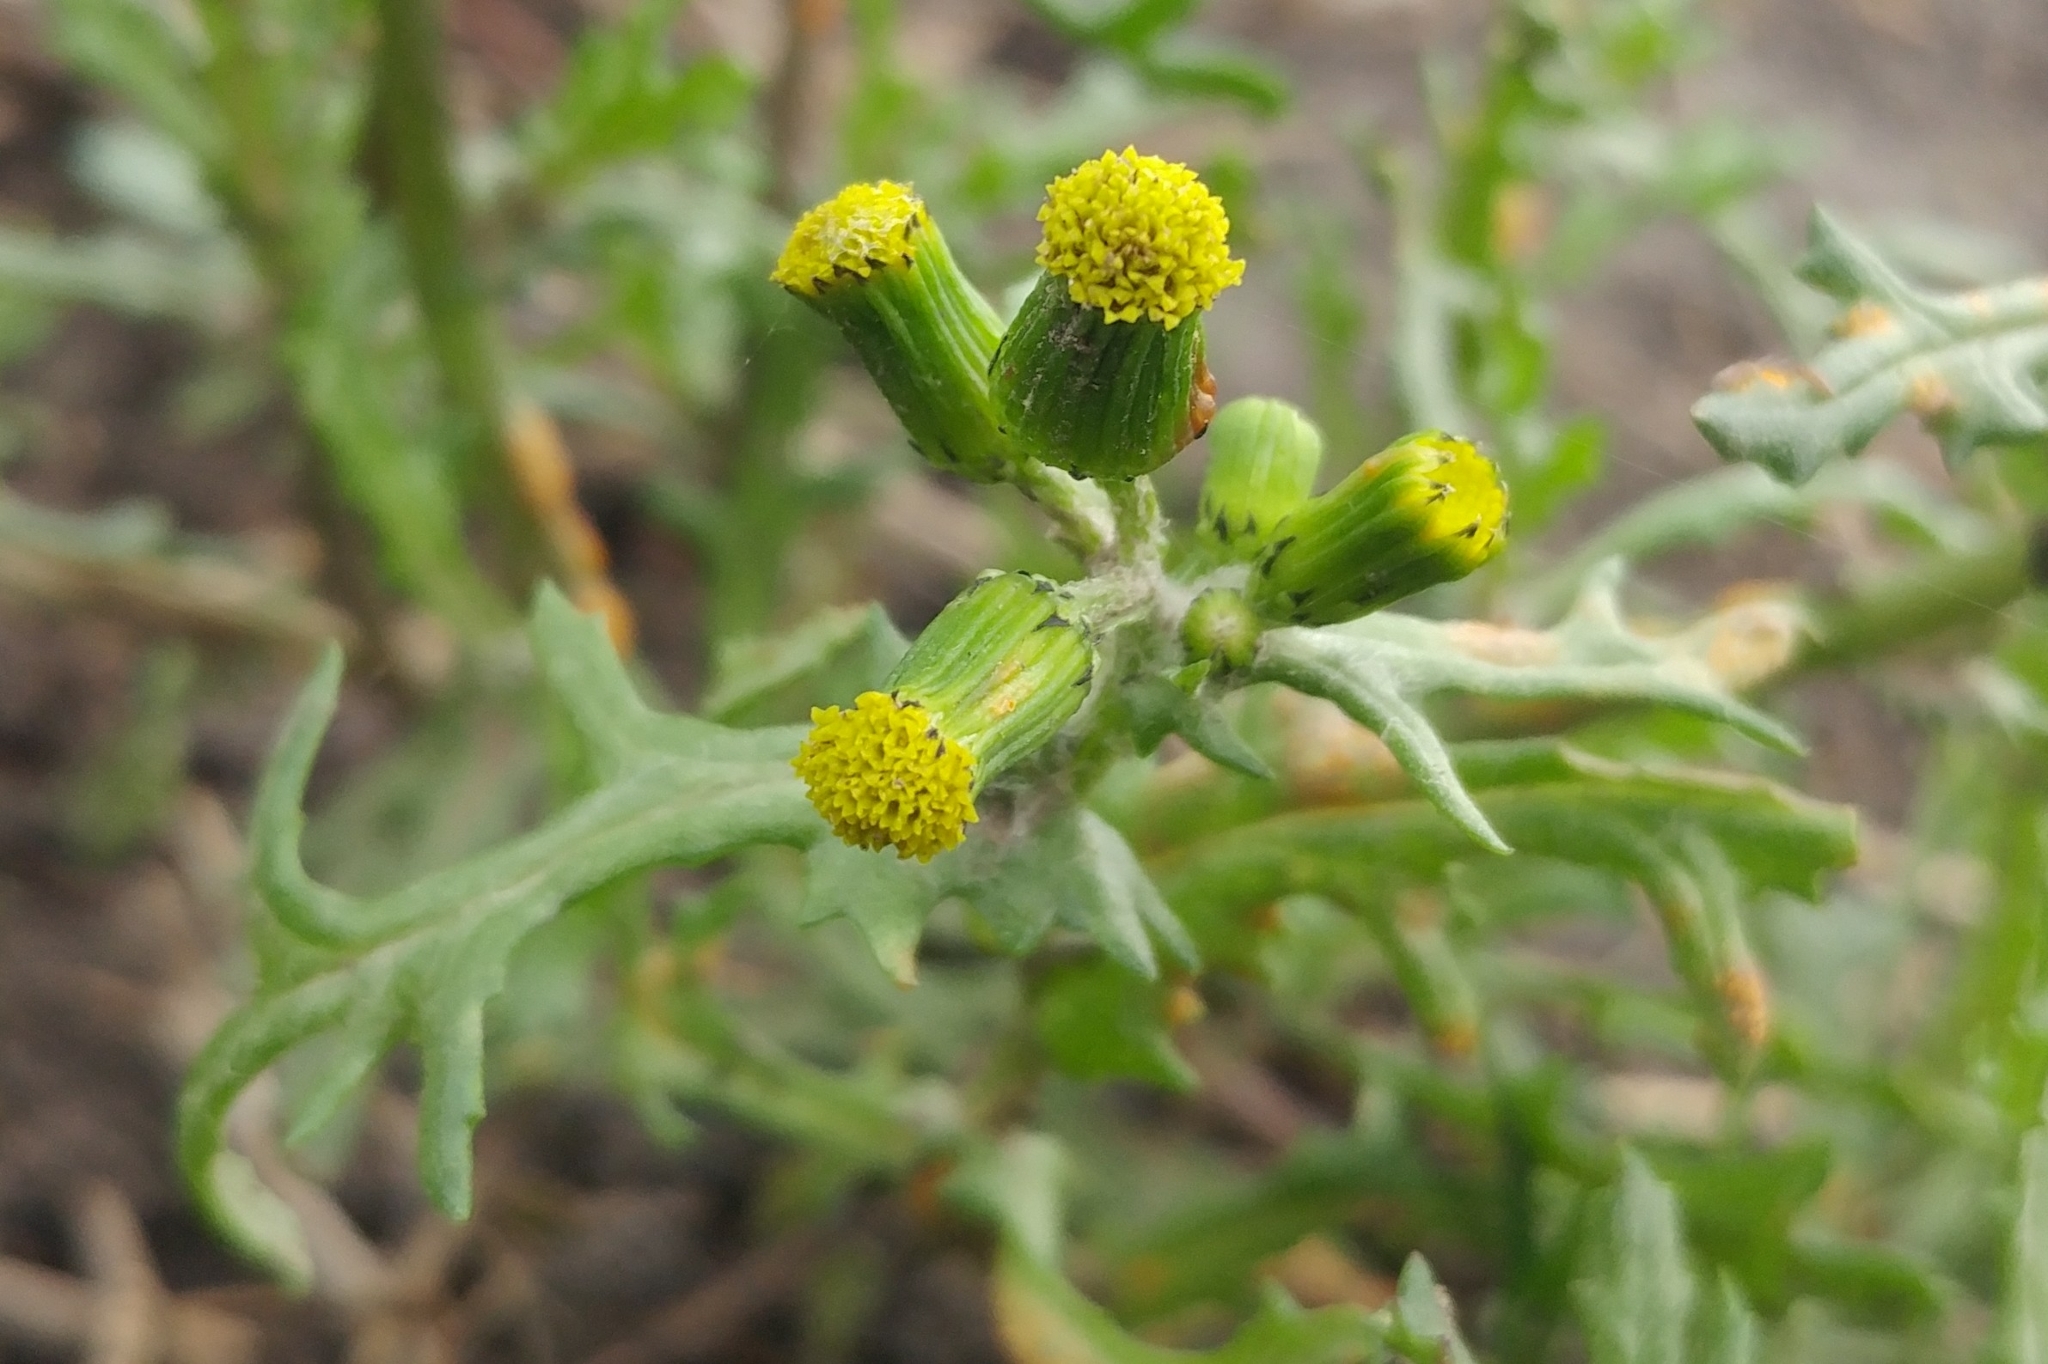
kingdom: Plantae
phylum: Tracheophyta
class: Magnoliopsida
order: Asterales
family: Asteraceae
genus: Senecio
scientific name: Senecio vulgaris
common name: Old-man-in-the-spring
